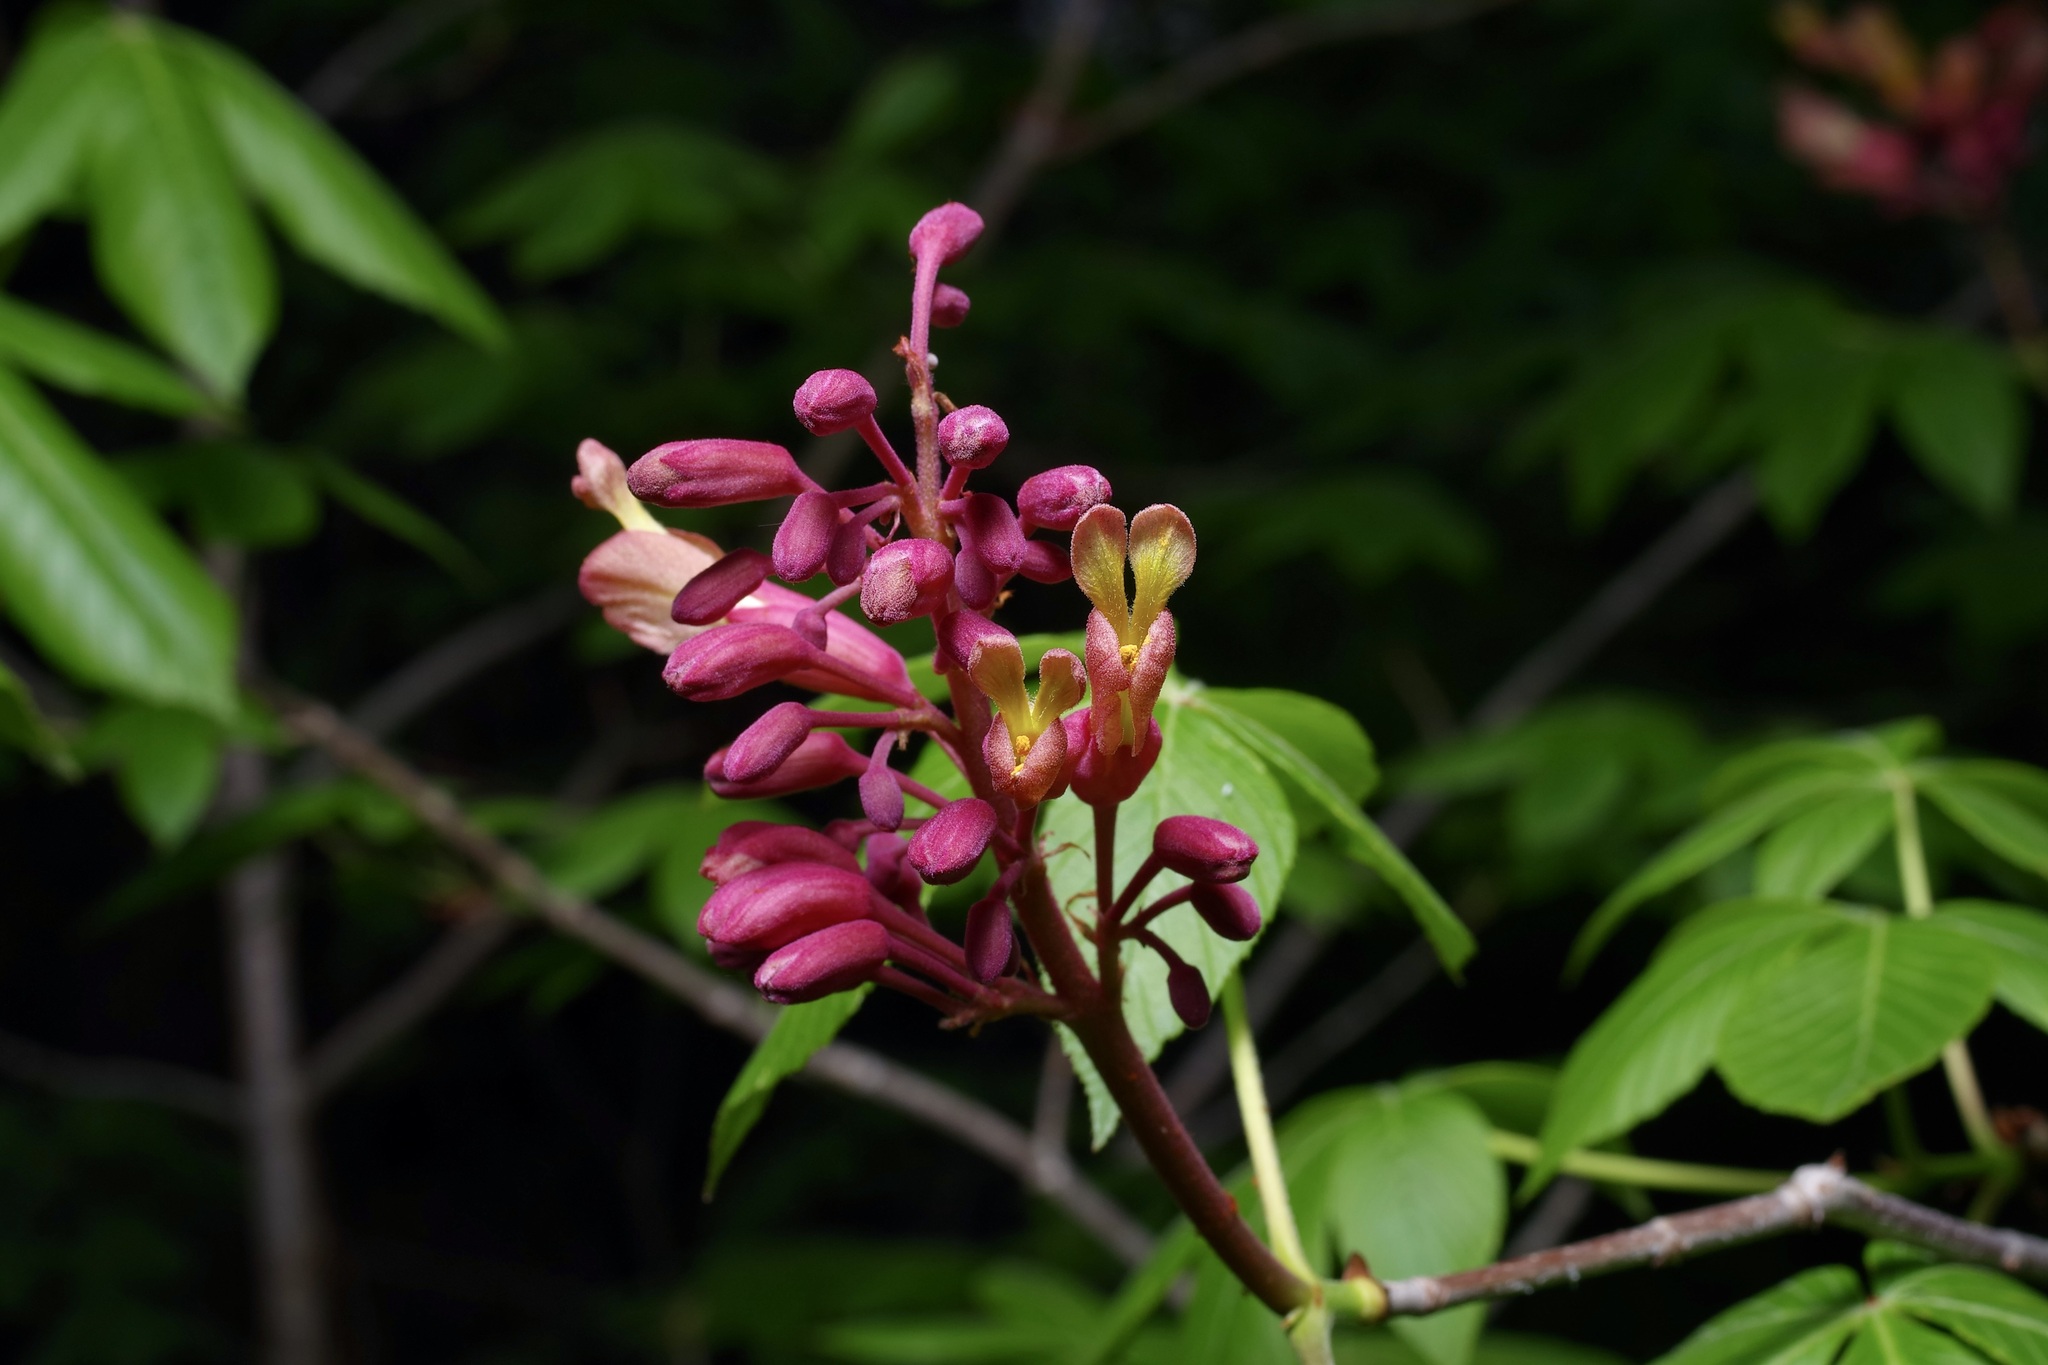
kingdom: Plantae
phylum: Tracheophyta
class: Magnoliopsida
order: Sapindales
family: Sapindaceae
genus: Aesculus
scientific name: Aesculus pavia
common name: Red buckeye
